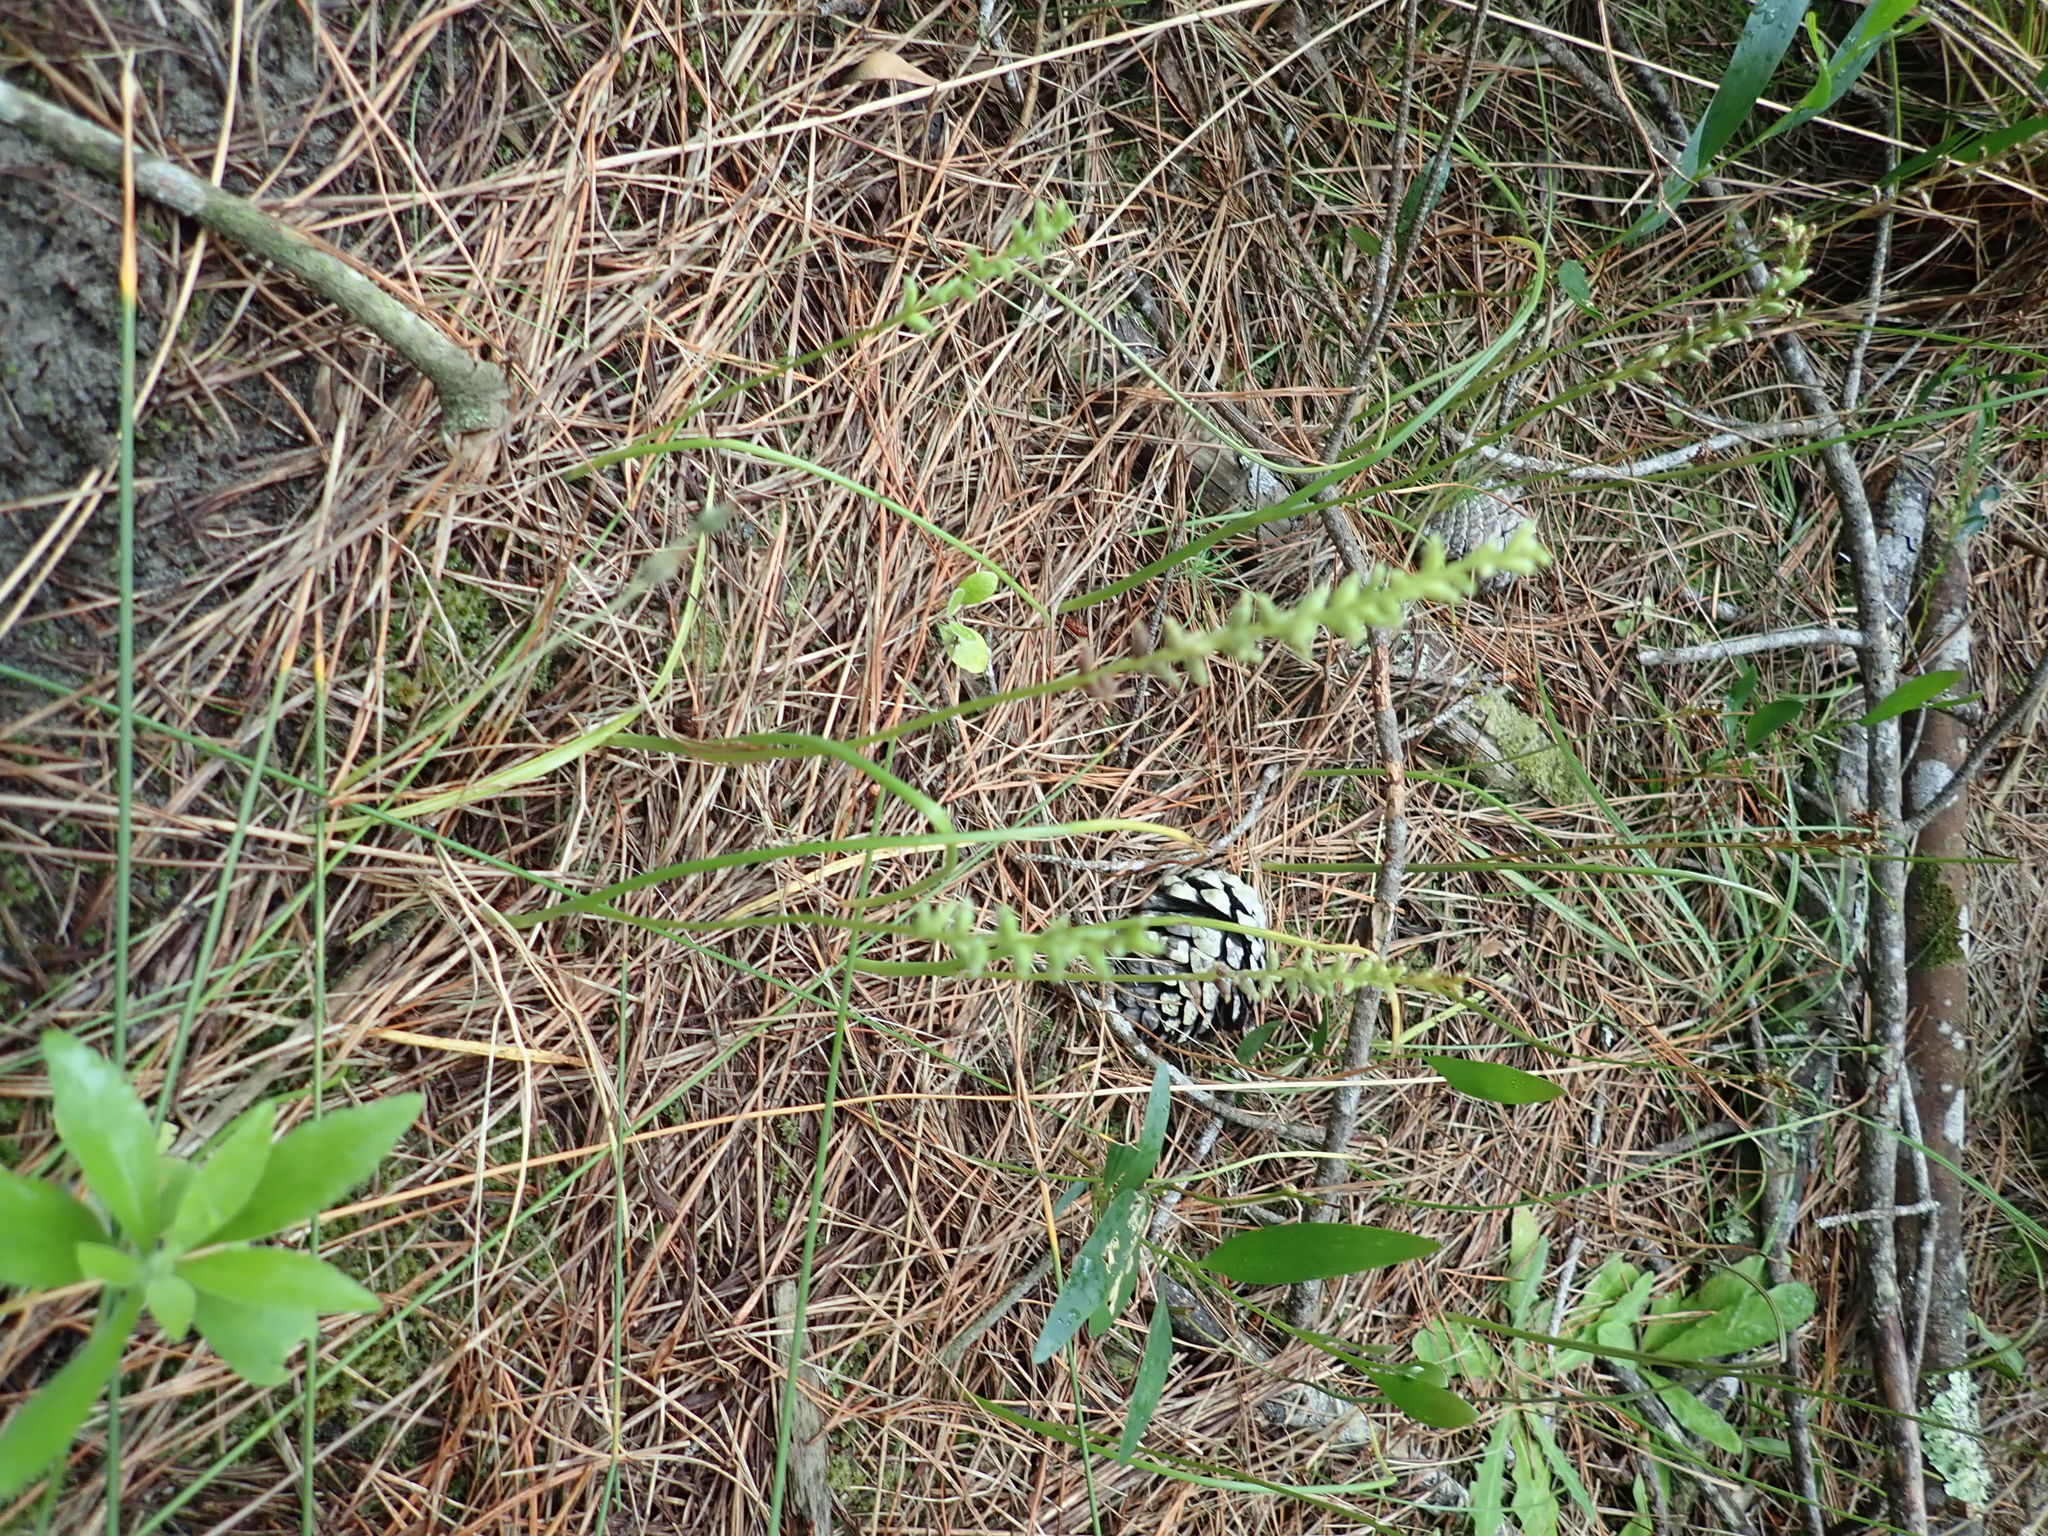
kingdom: Plantae
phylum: Tracheophyta
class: Liliopsida
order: Asparagales
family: Orchidaceae
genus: Microtis
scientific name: Microtis unifolia
